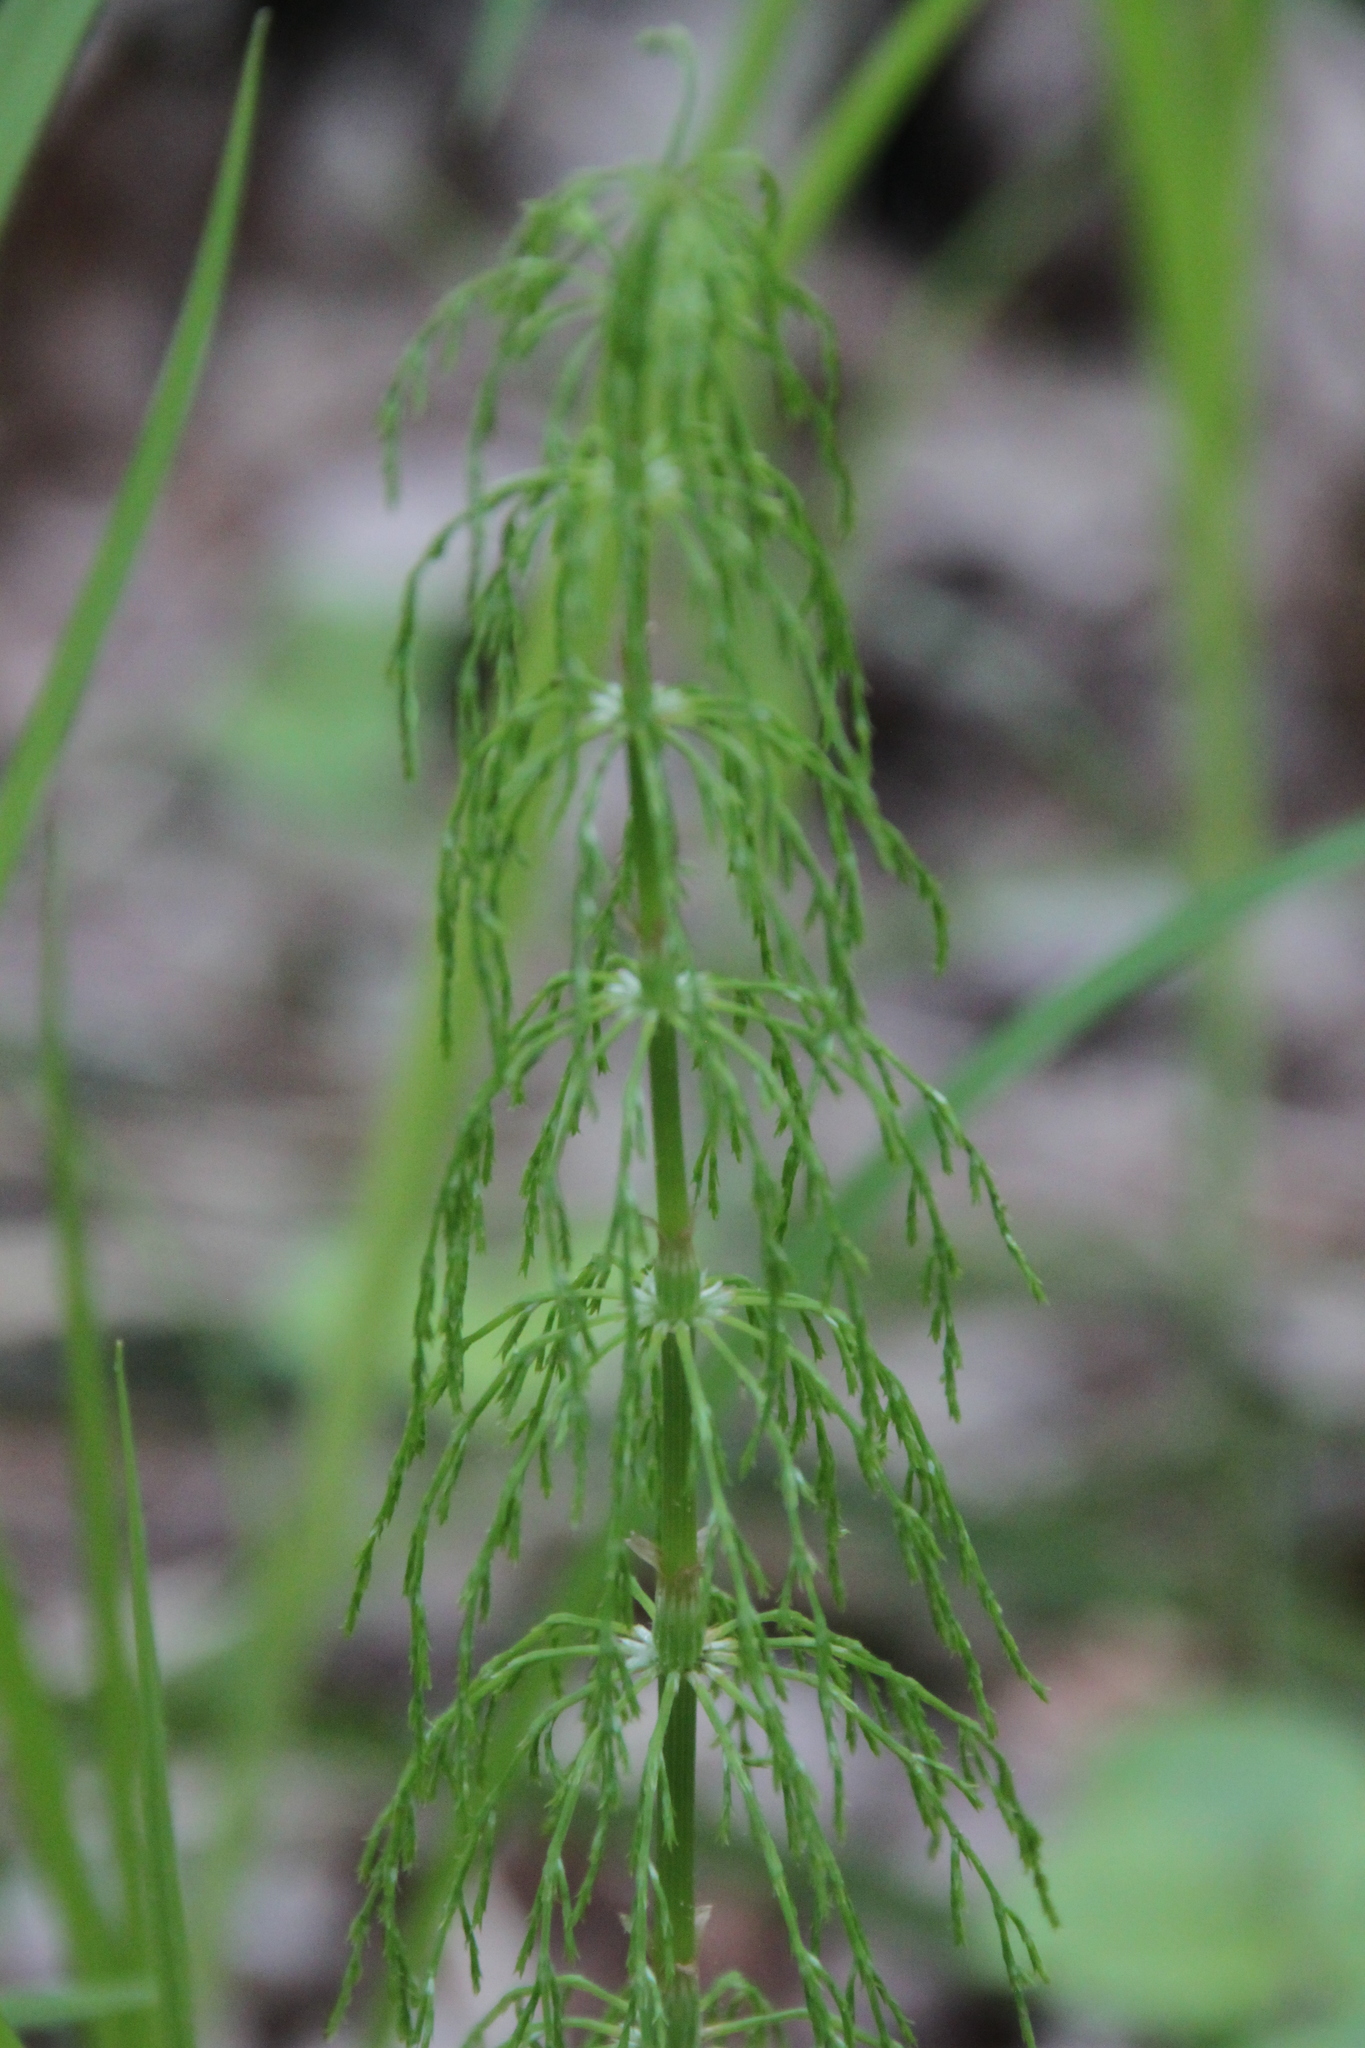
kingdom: Plantae
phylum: Tracheophyta
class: Polypodiopsida
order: Equisetales
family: Equisetaceae
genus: Equisetum
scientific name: Equisetum sylvaticum
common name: Wood horsetail
